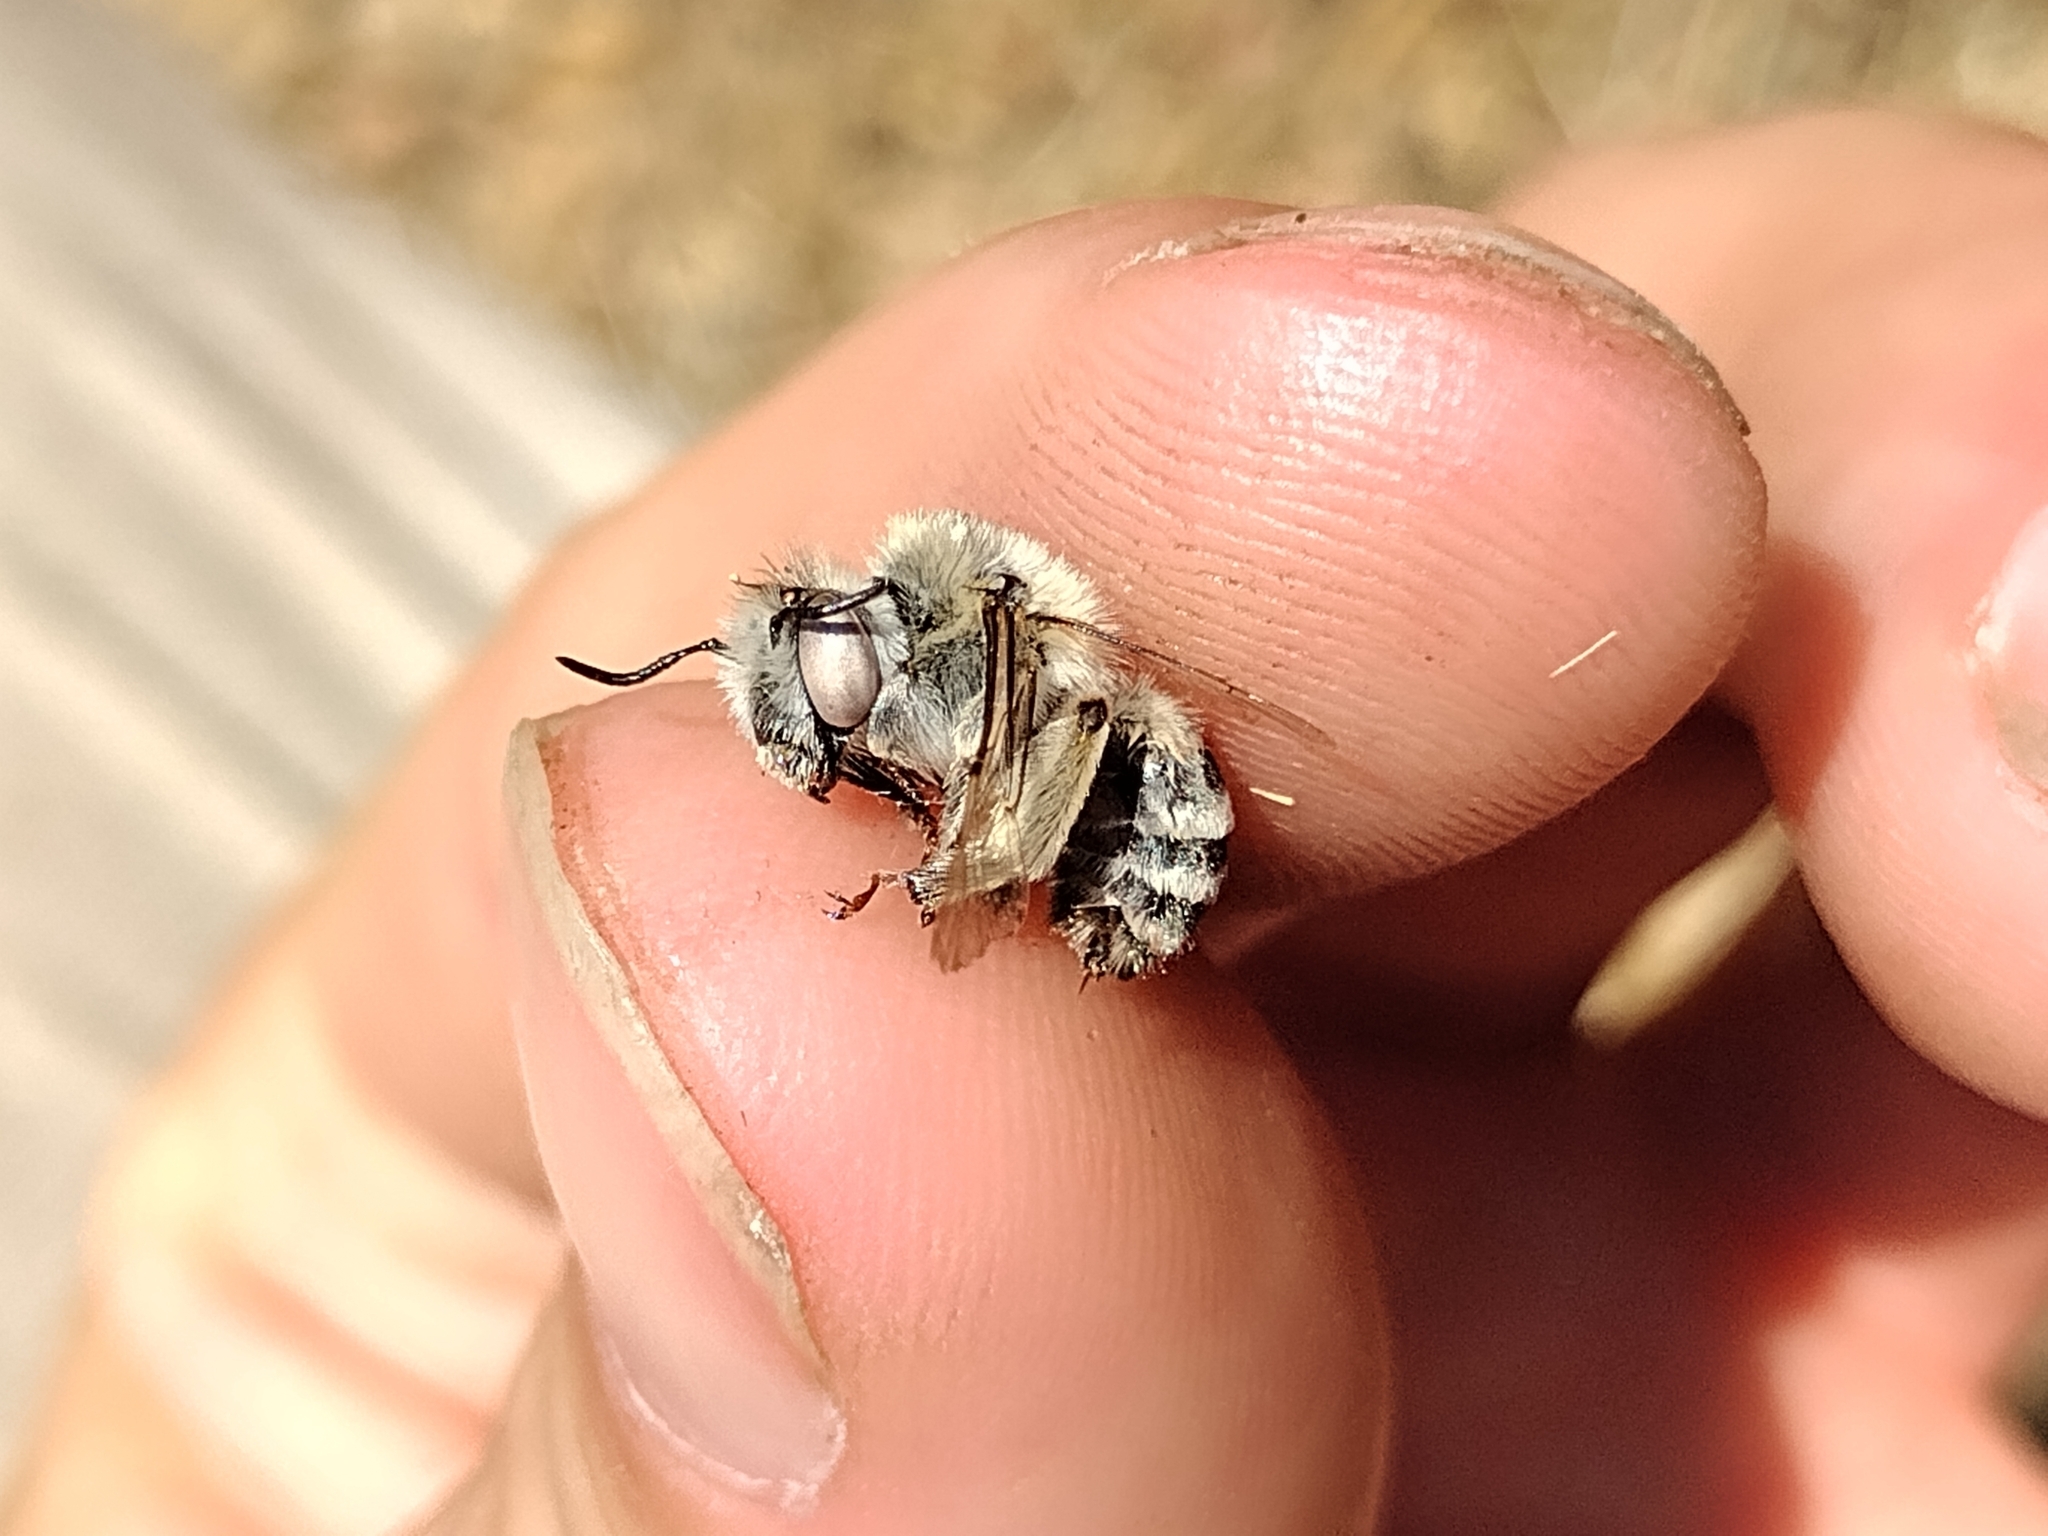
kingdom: Animalia
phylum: Arthropoda
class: Insecta
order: Hymenoptera
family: Apidae
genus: Anthophora
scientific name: Anthophora urbana
